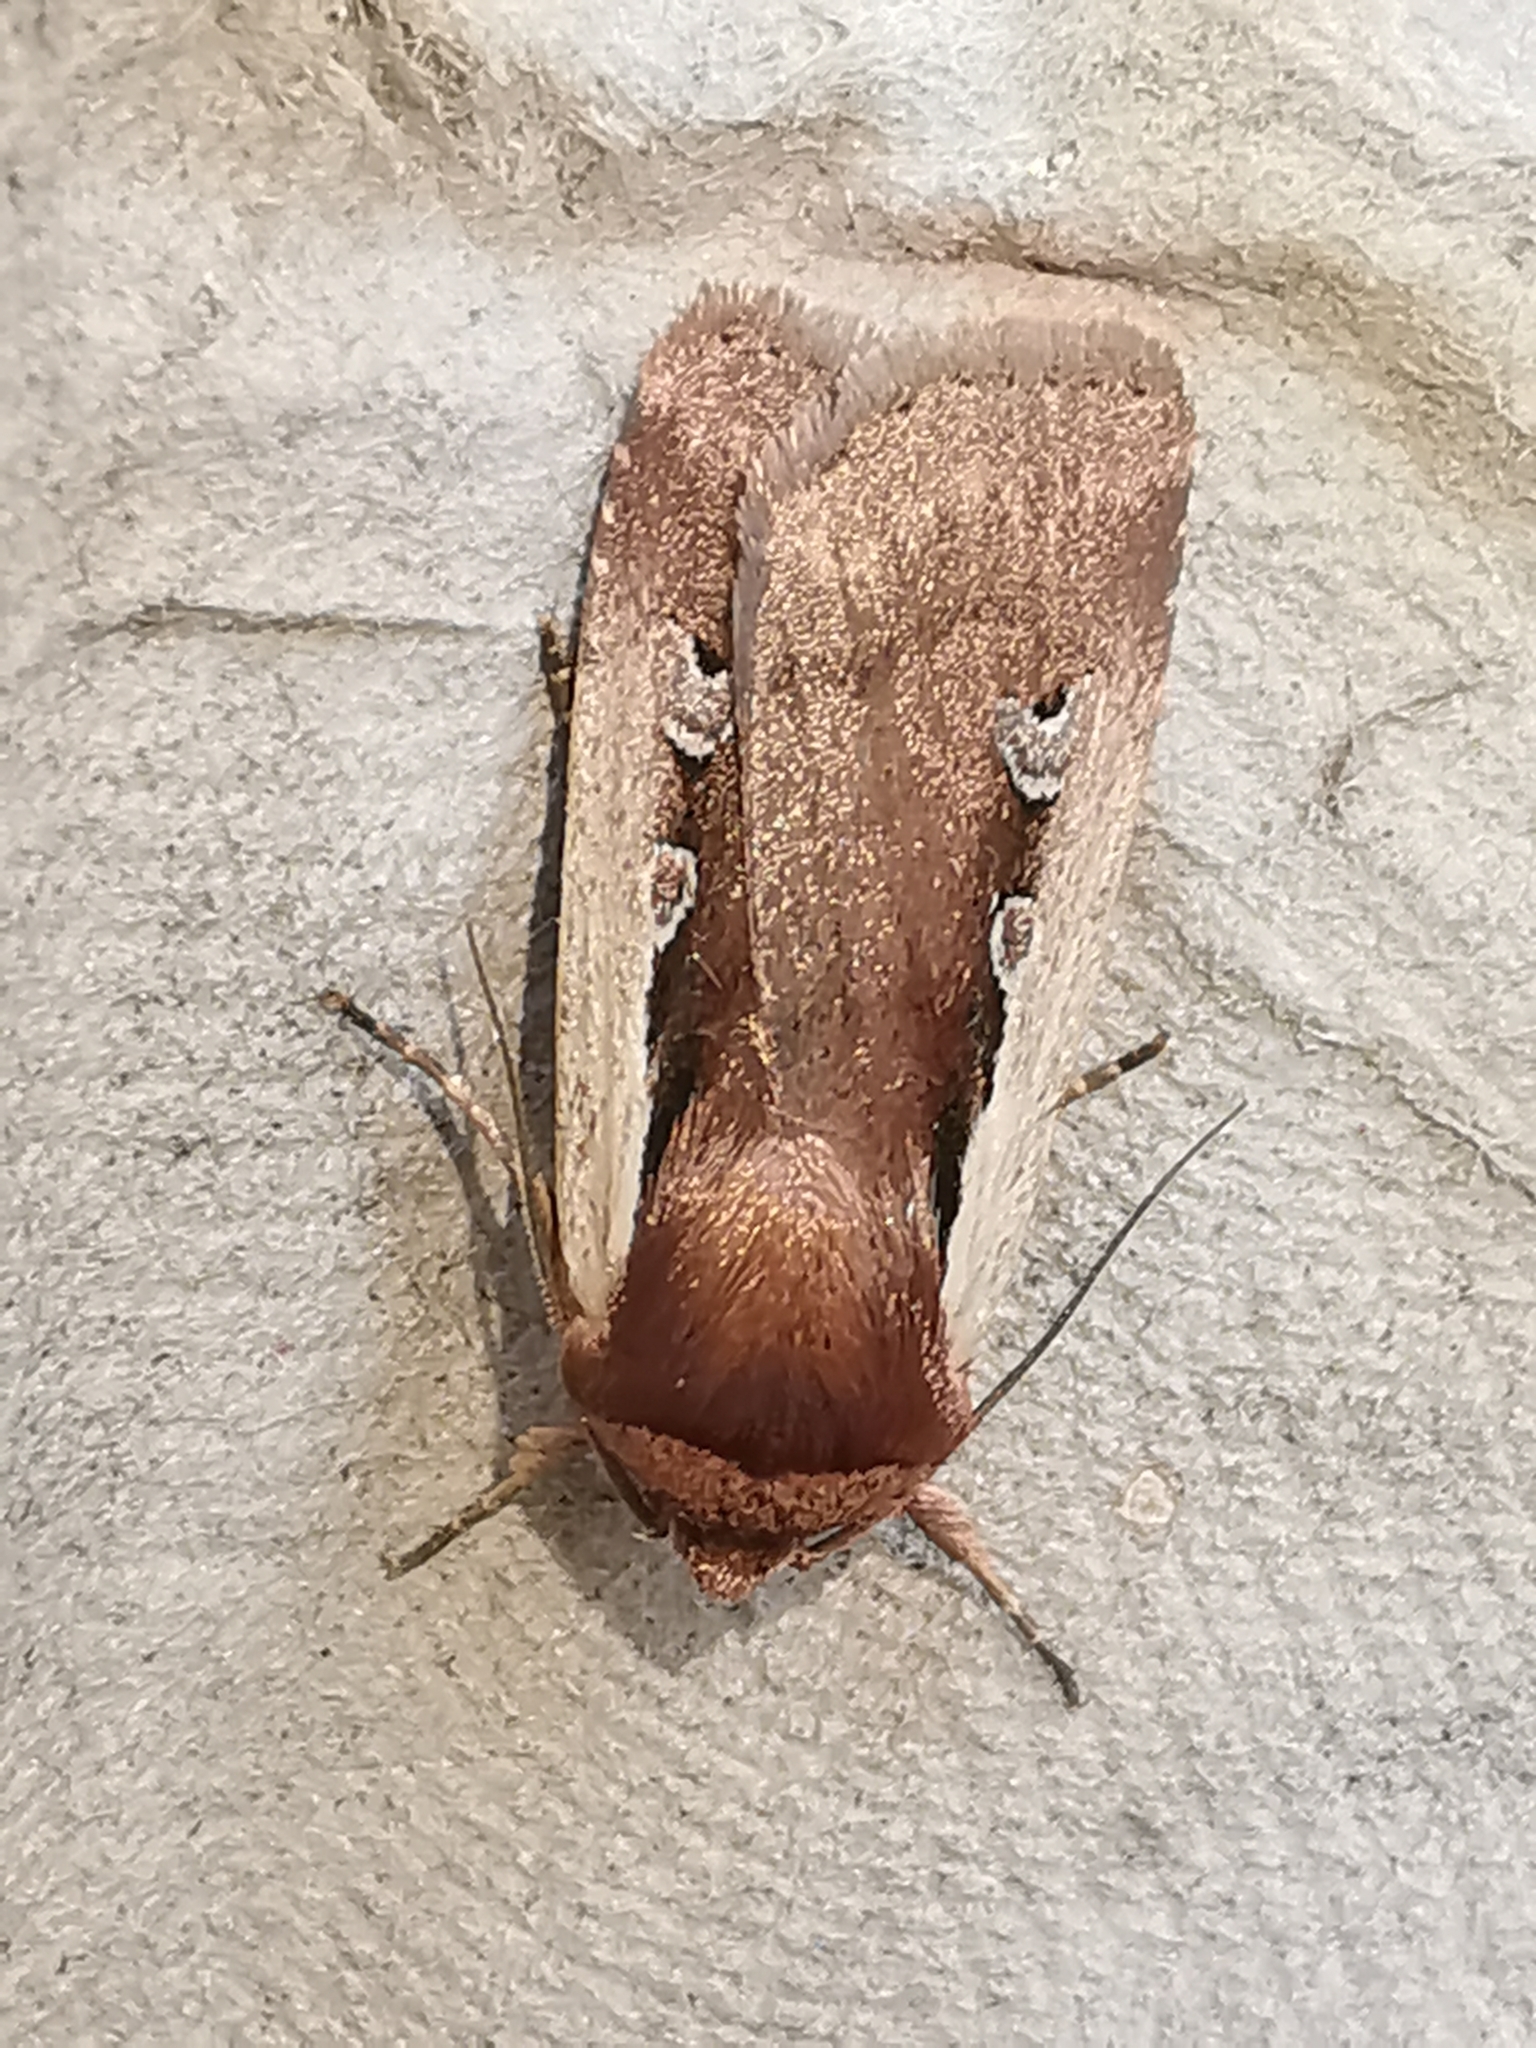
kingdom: Animalia
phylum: Arthropoda
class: Insecta
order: Lepidoptera
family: Noctuidae
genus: Ochropleura
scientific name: Ochropleura plecta
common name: Flame shoulder
